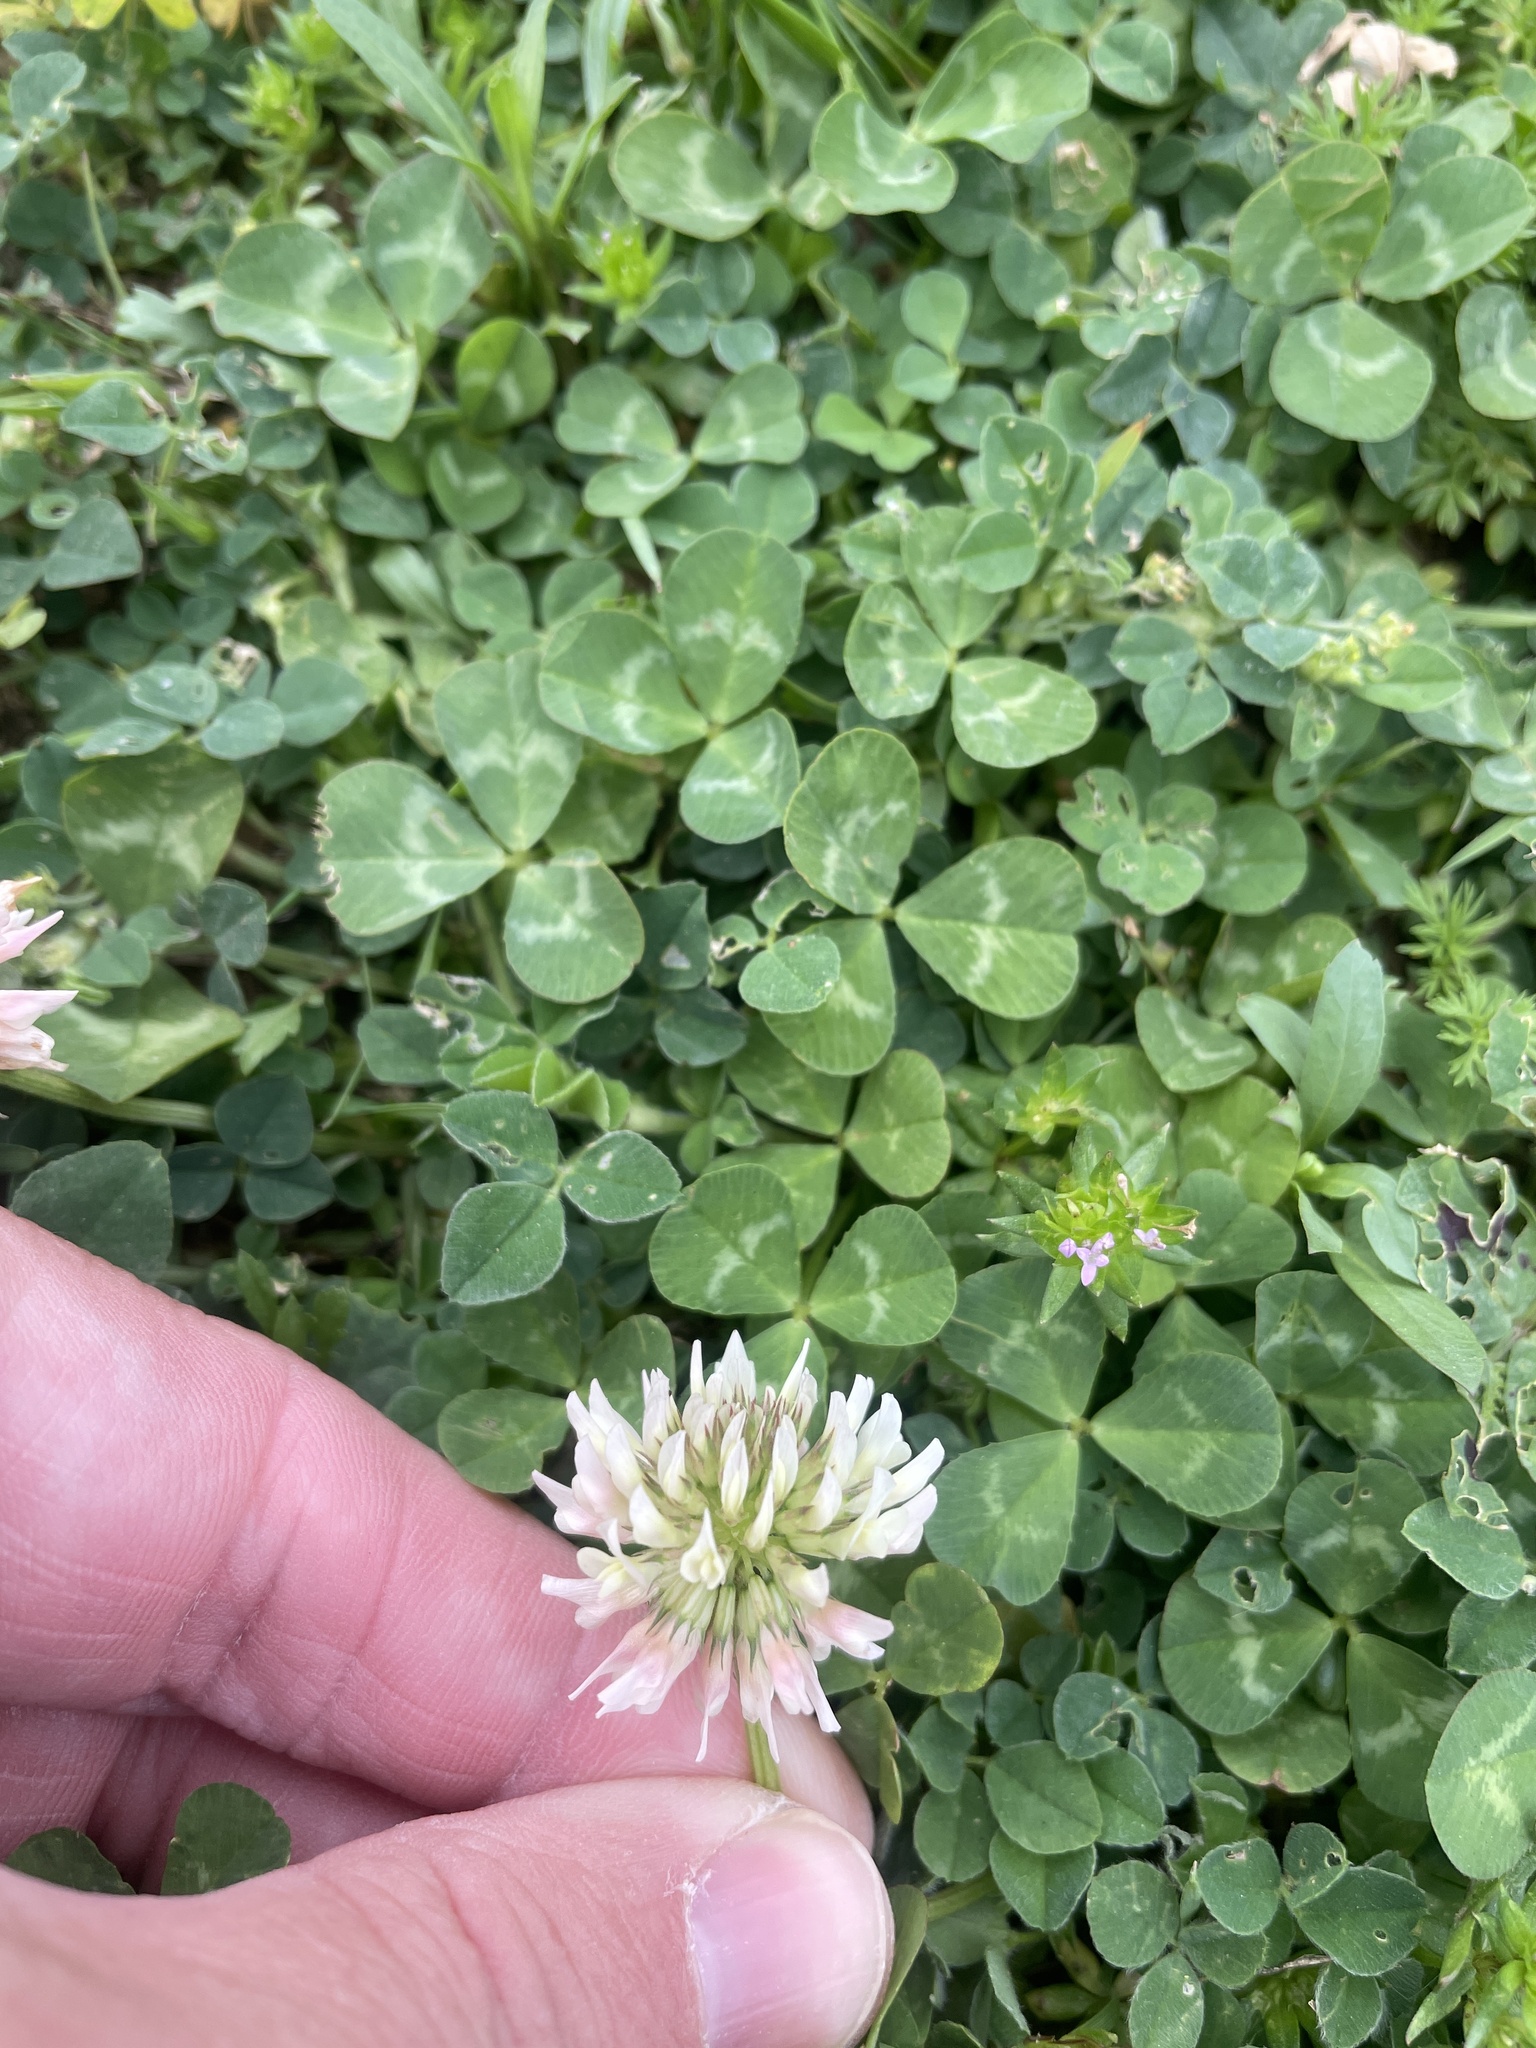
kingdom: Plantae
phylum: Tracheophyta
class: Magnoliopsida
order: Fabales
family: Fabaceae
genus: Trifolium
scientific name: Trifolium repens
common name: White clover
